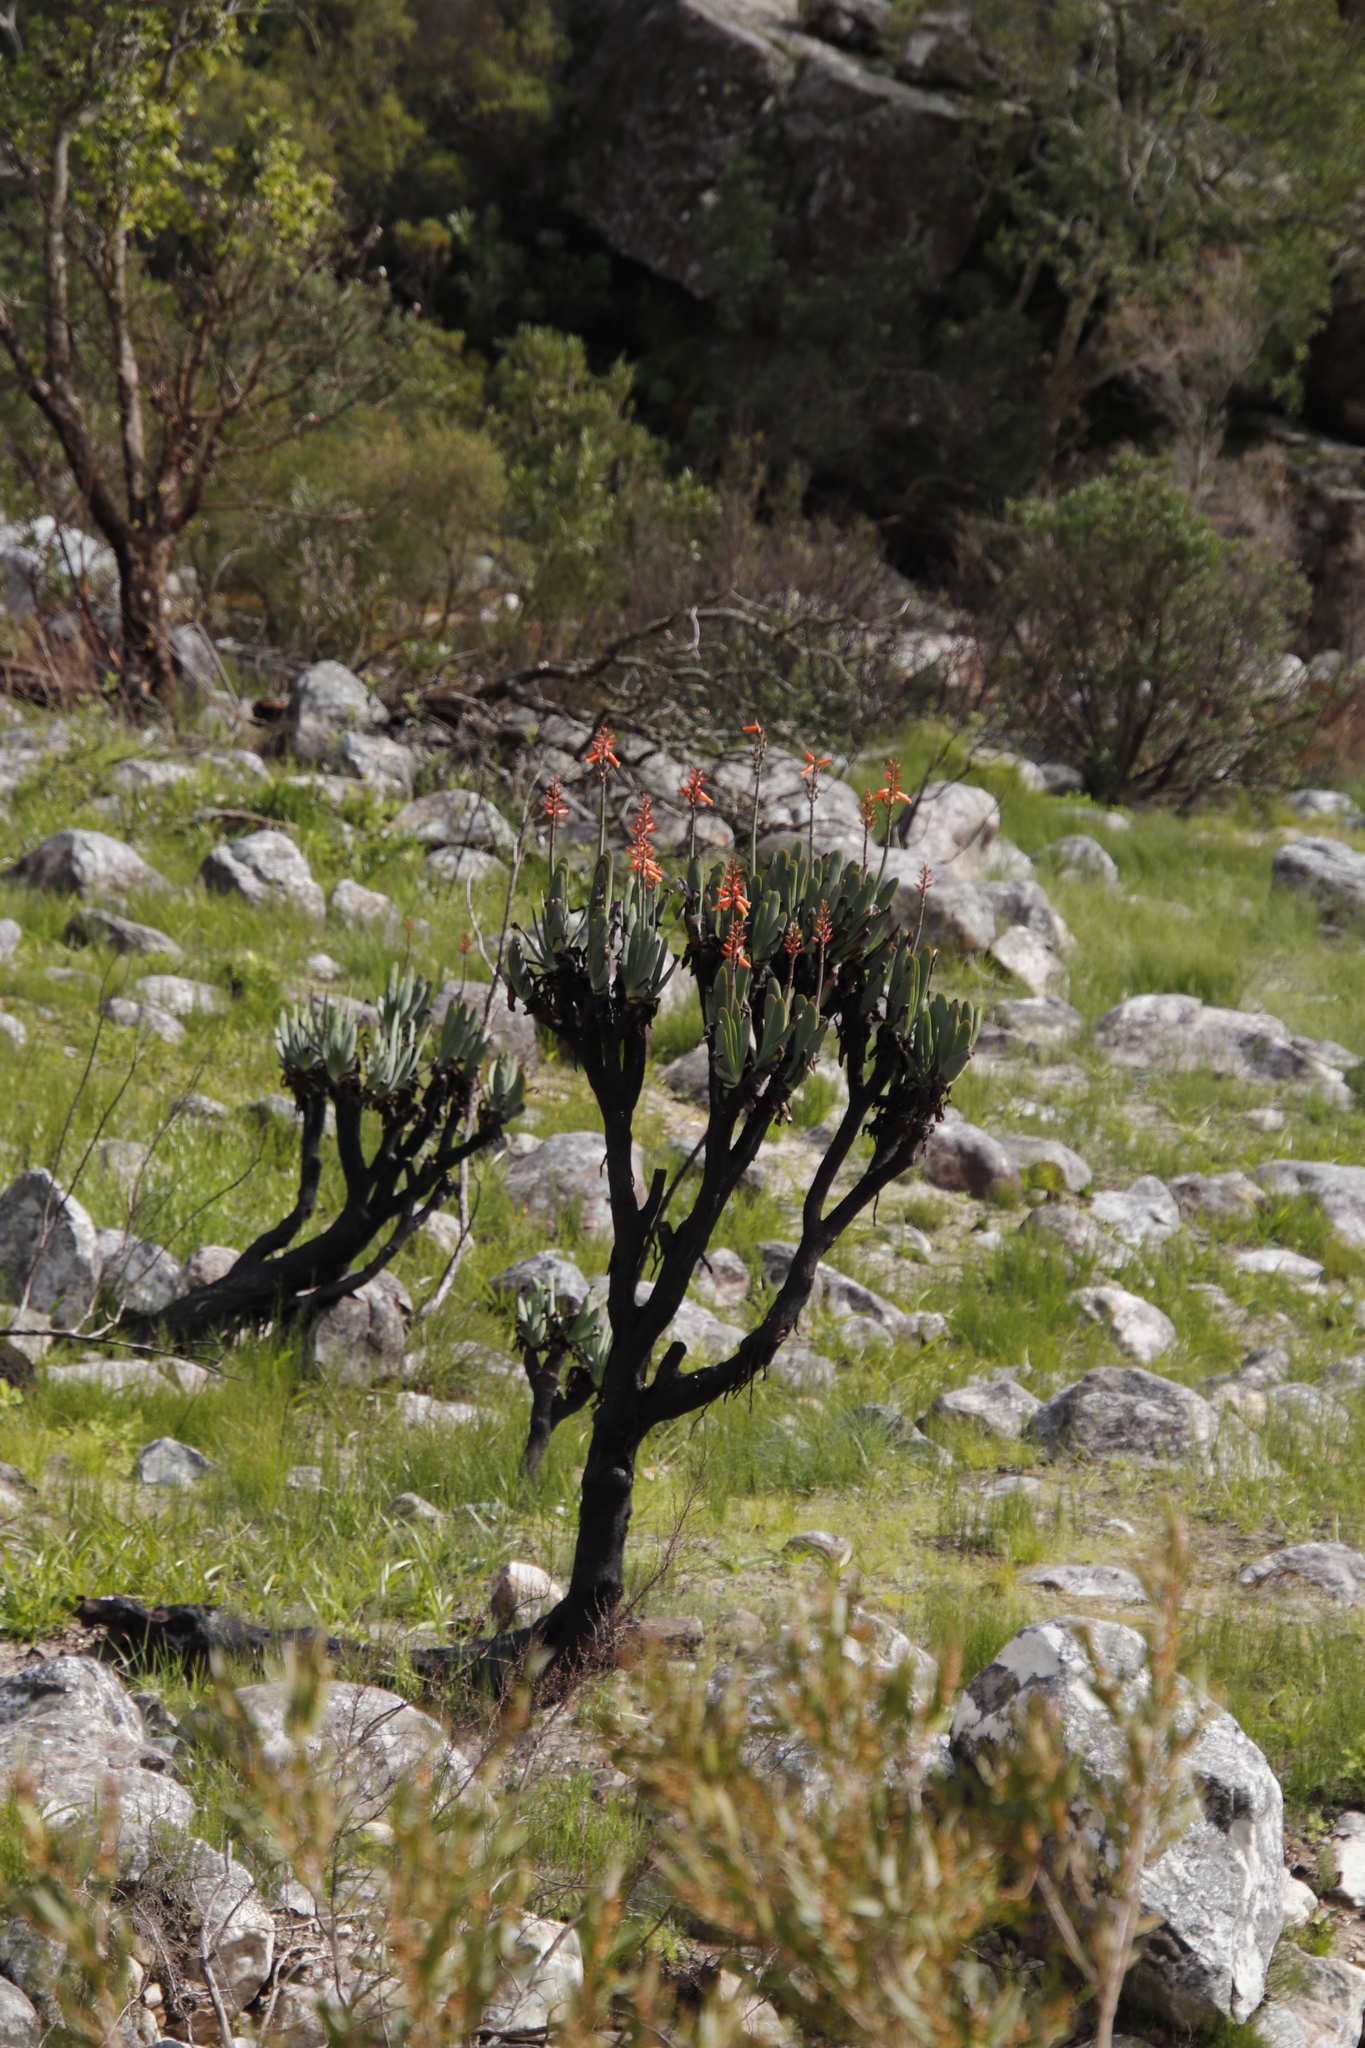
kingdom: Plantae
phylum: Tracheophyta
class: Liliopsida
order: Asparagales
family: Asphodelaceae
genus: Kumara
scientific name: Kumara plicatilis
